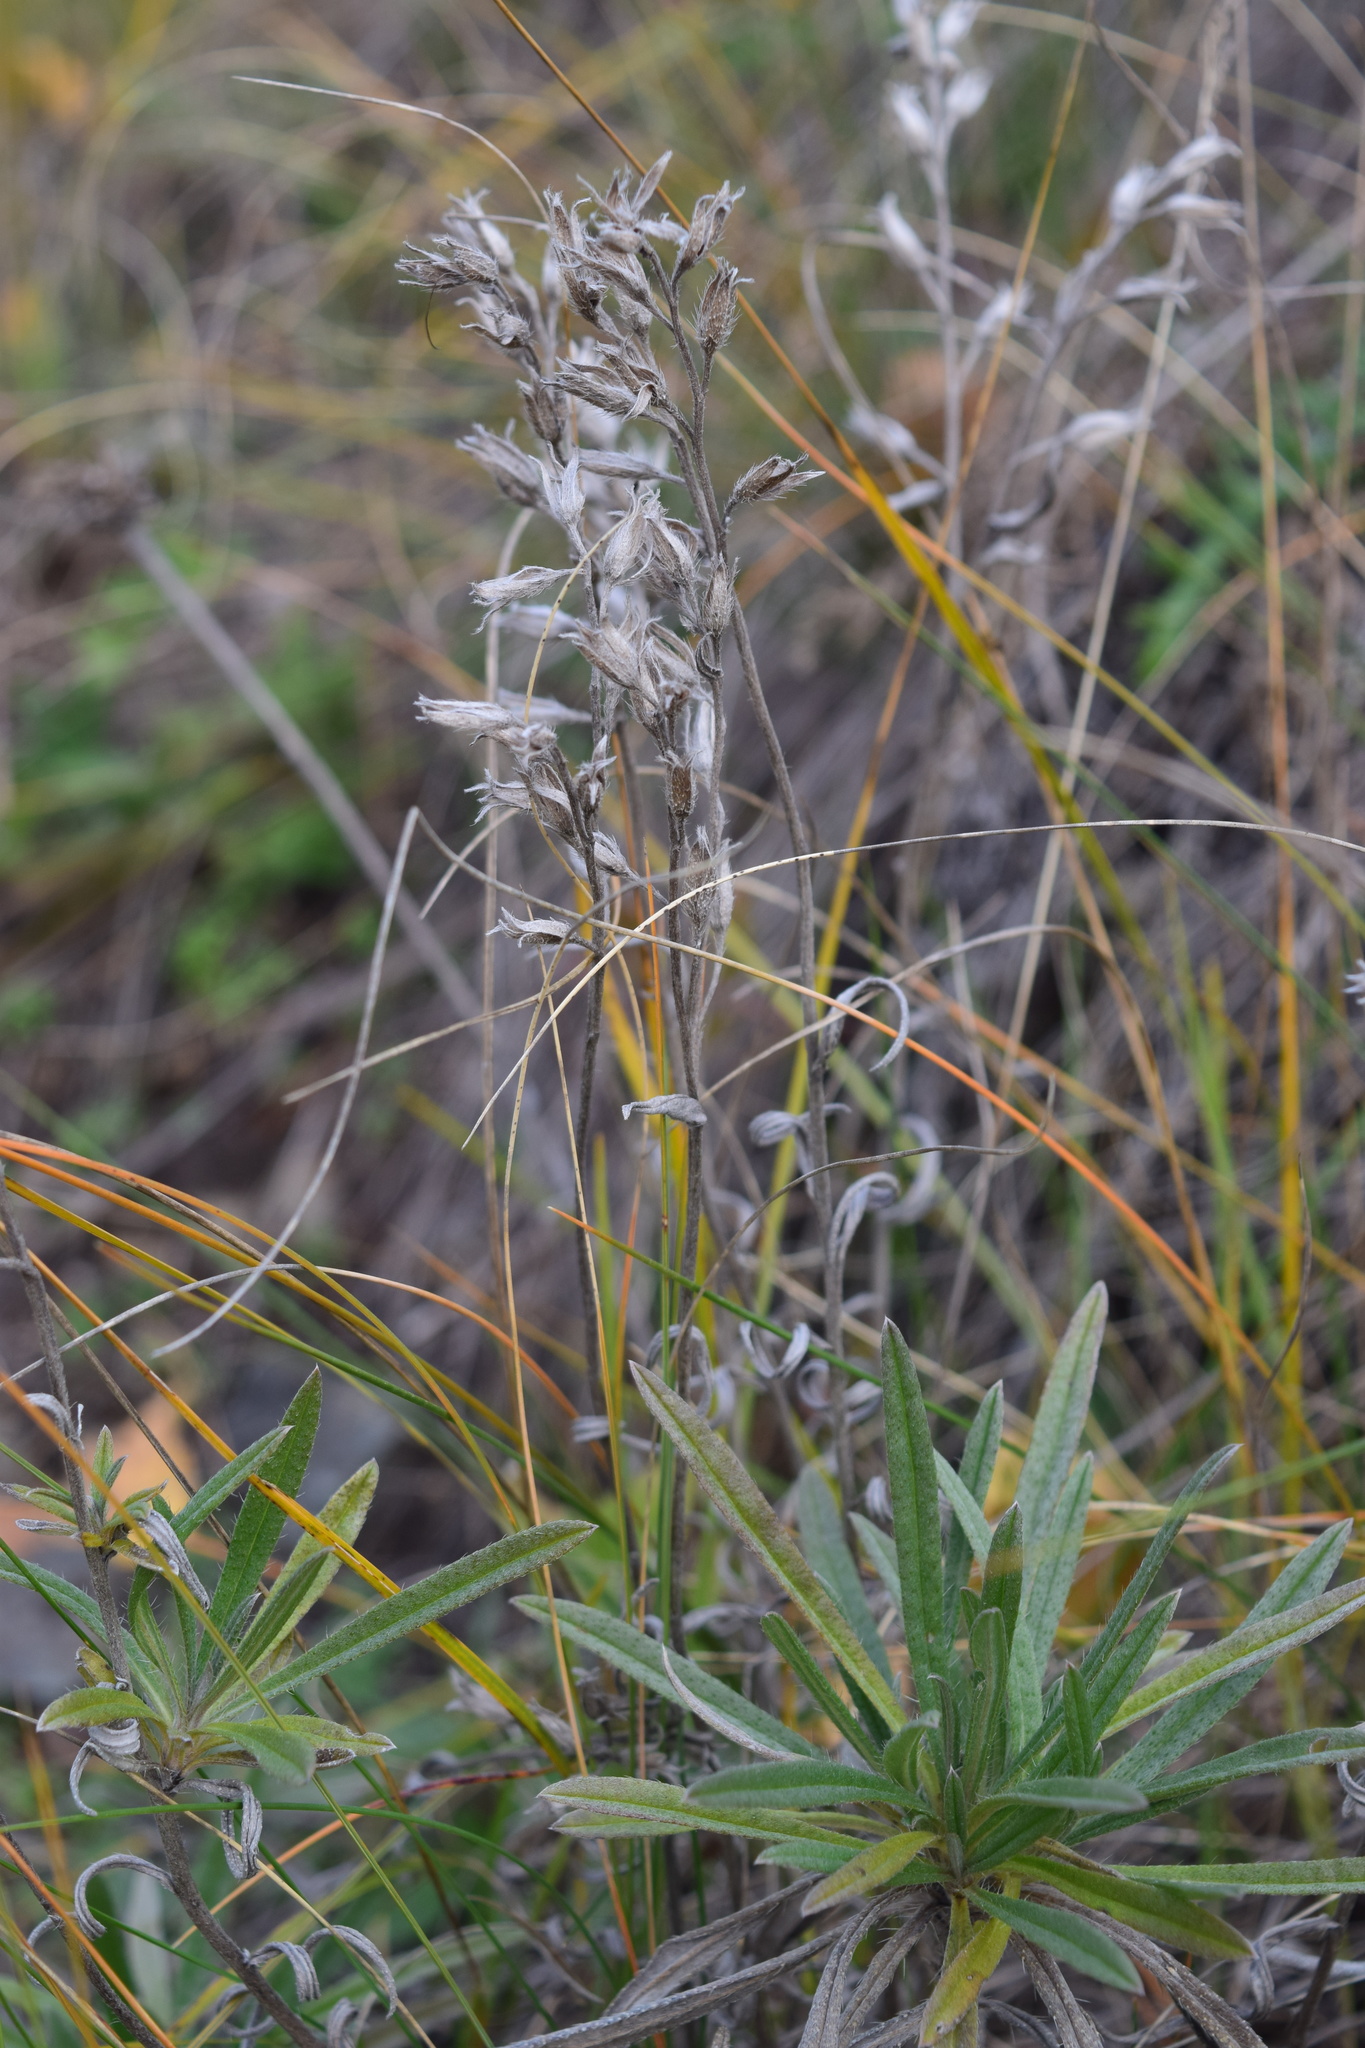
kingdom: Plantae
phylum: Tracheophyta
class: Magnoliopsida
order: Boraginales
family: Boraginaceae
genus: Onosma
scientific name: Onosma simplicissima
